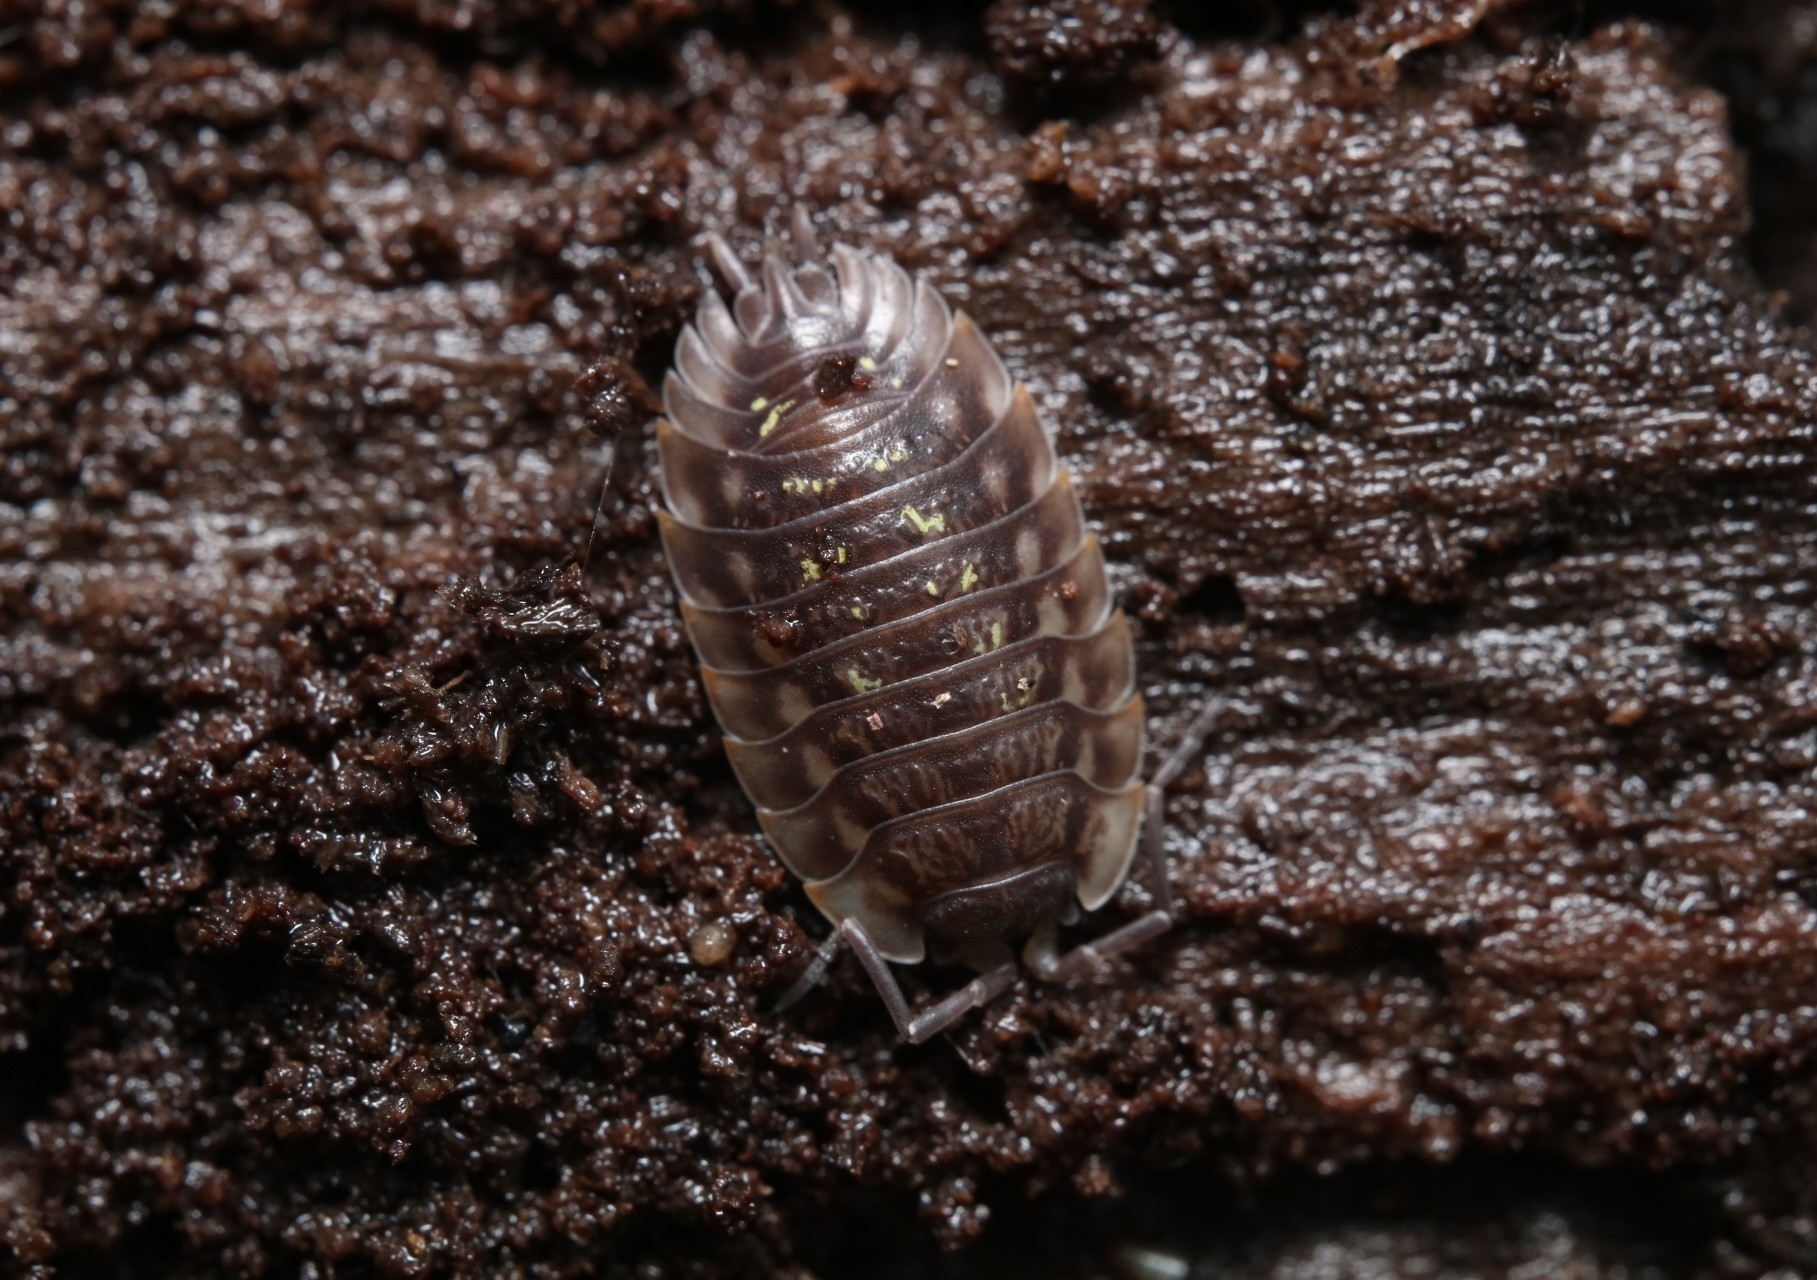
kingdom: Animalia
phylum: Arthropoda
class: Malacostraca
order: Isopoda
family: Oniscidae
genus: Oniscus
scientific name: Oniscus asellus
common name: Common shiny woodlouse
